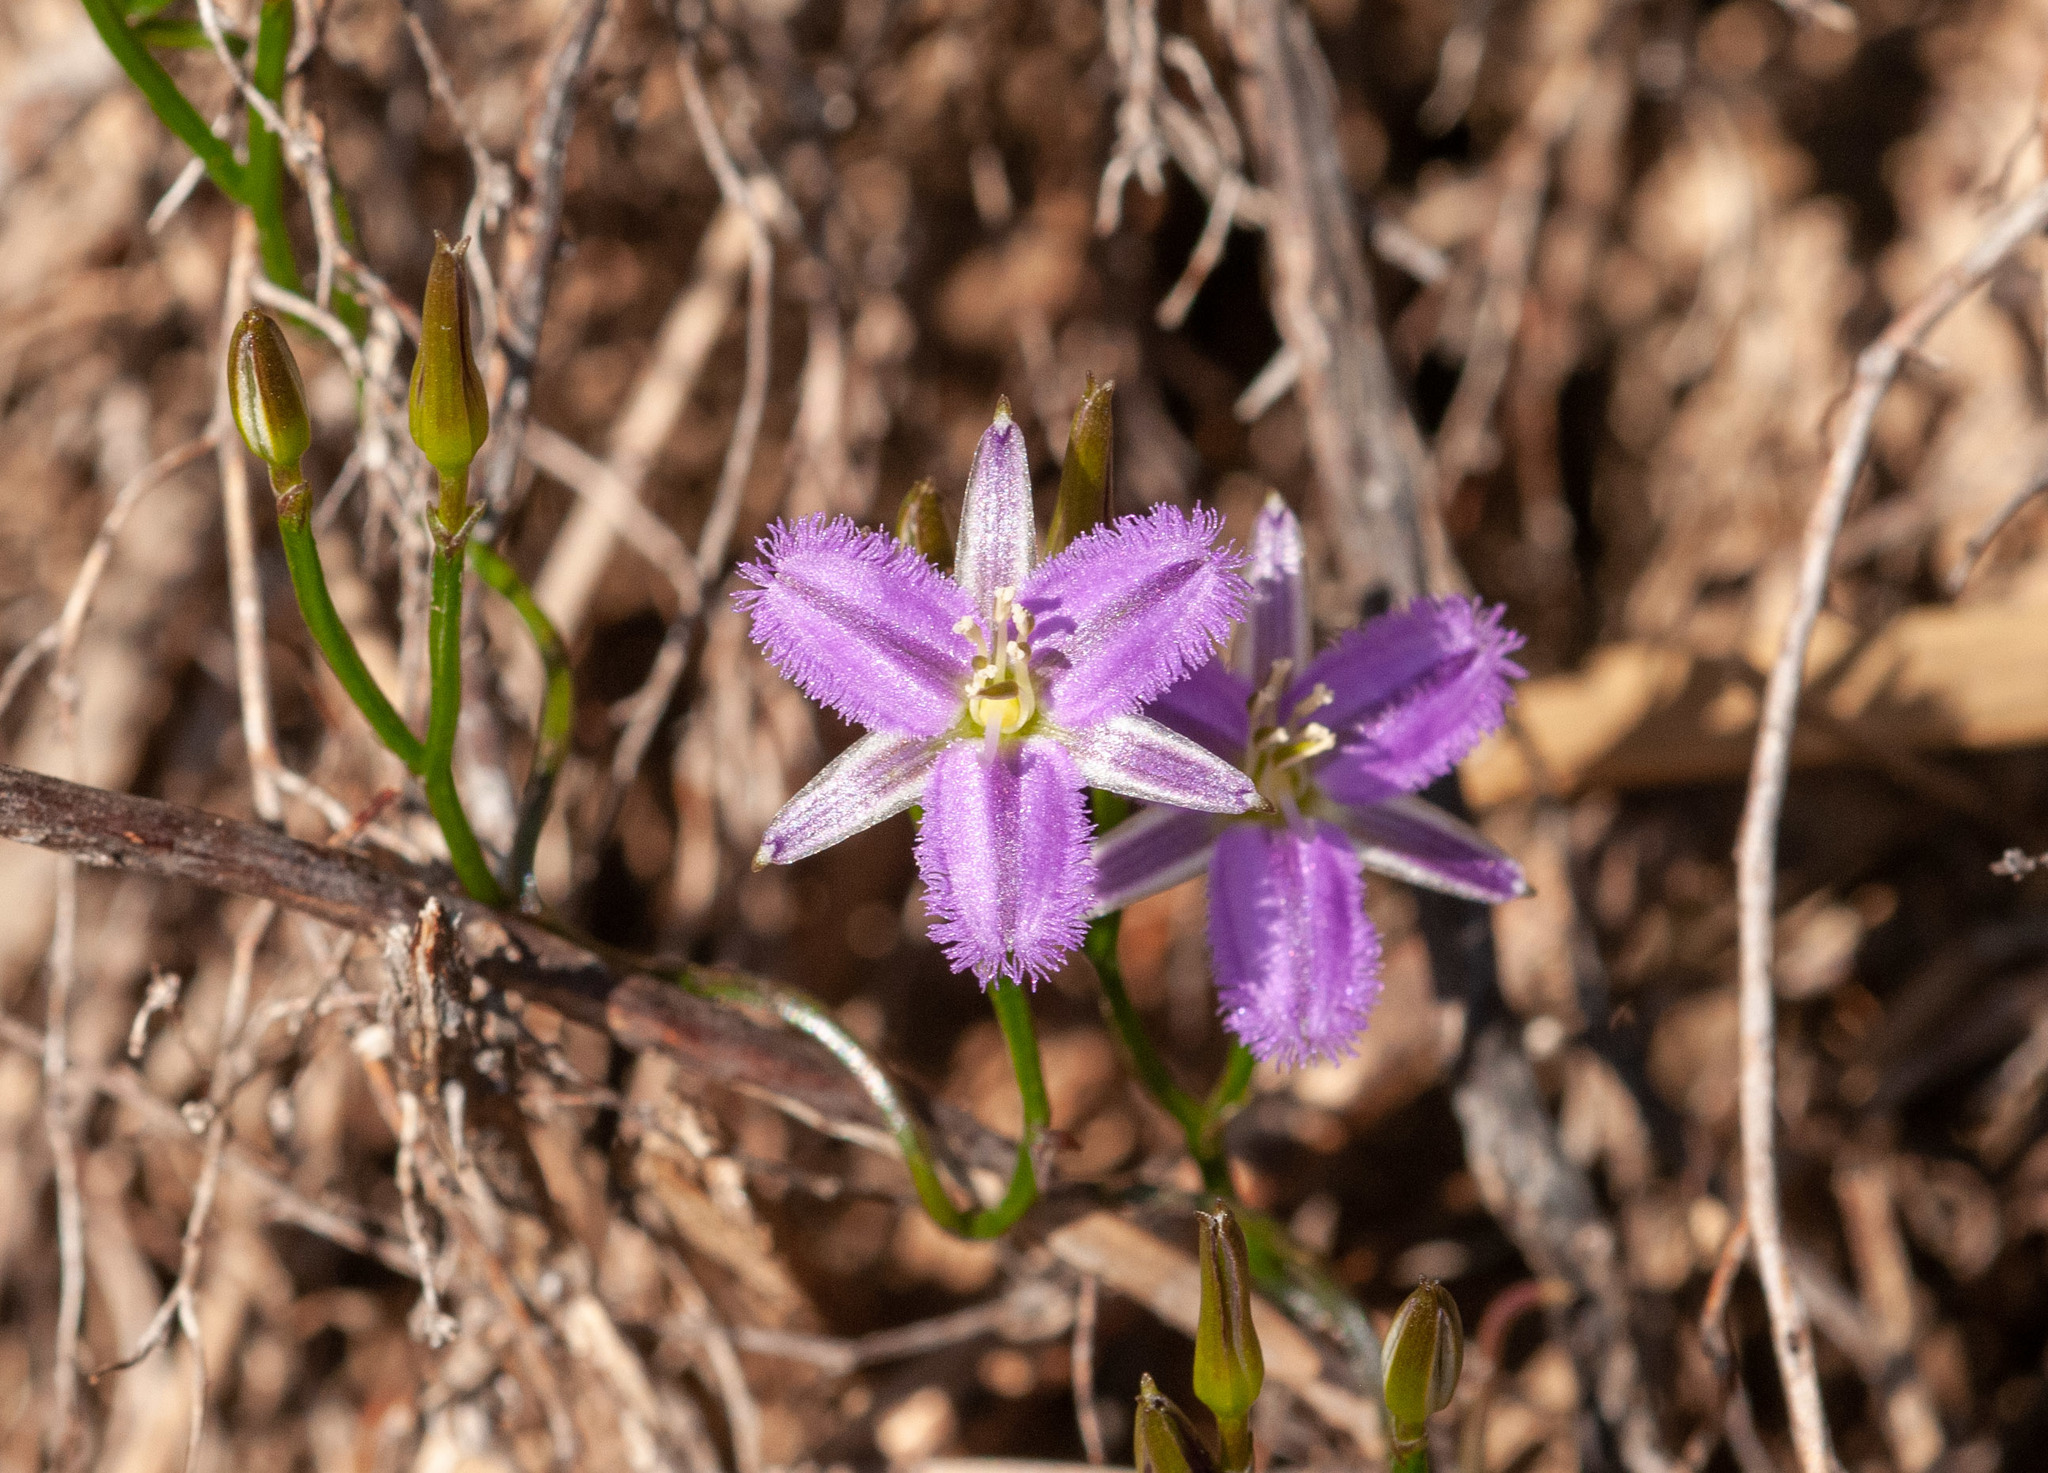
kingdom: Plantae
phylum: Tracheophyta
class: Liliopsida
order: Asparagales
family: Asparagaceae
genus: Thysanotus
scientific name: Thysanotus patersonii
